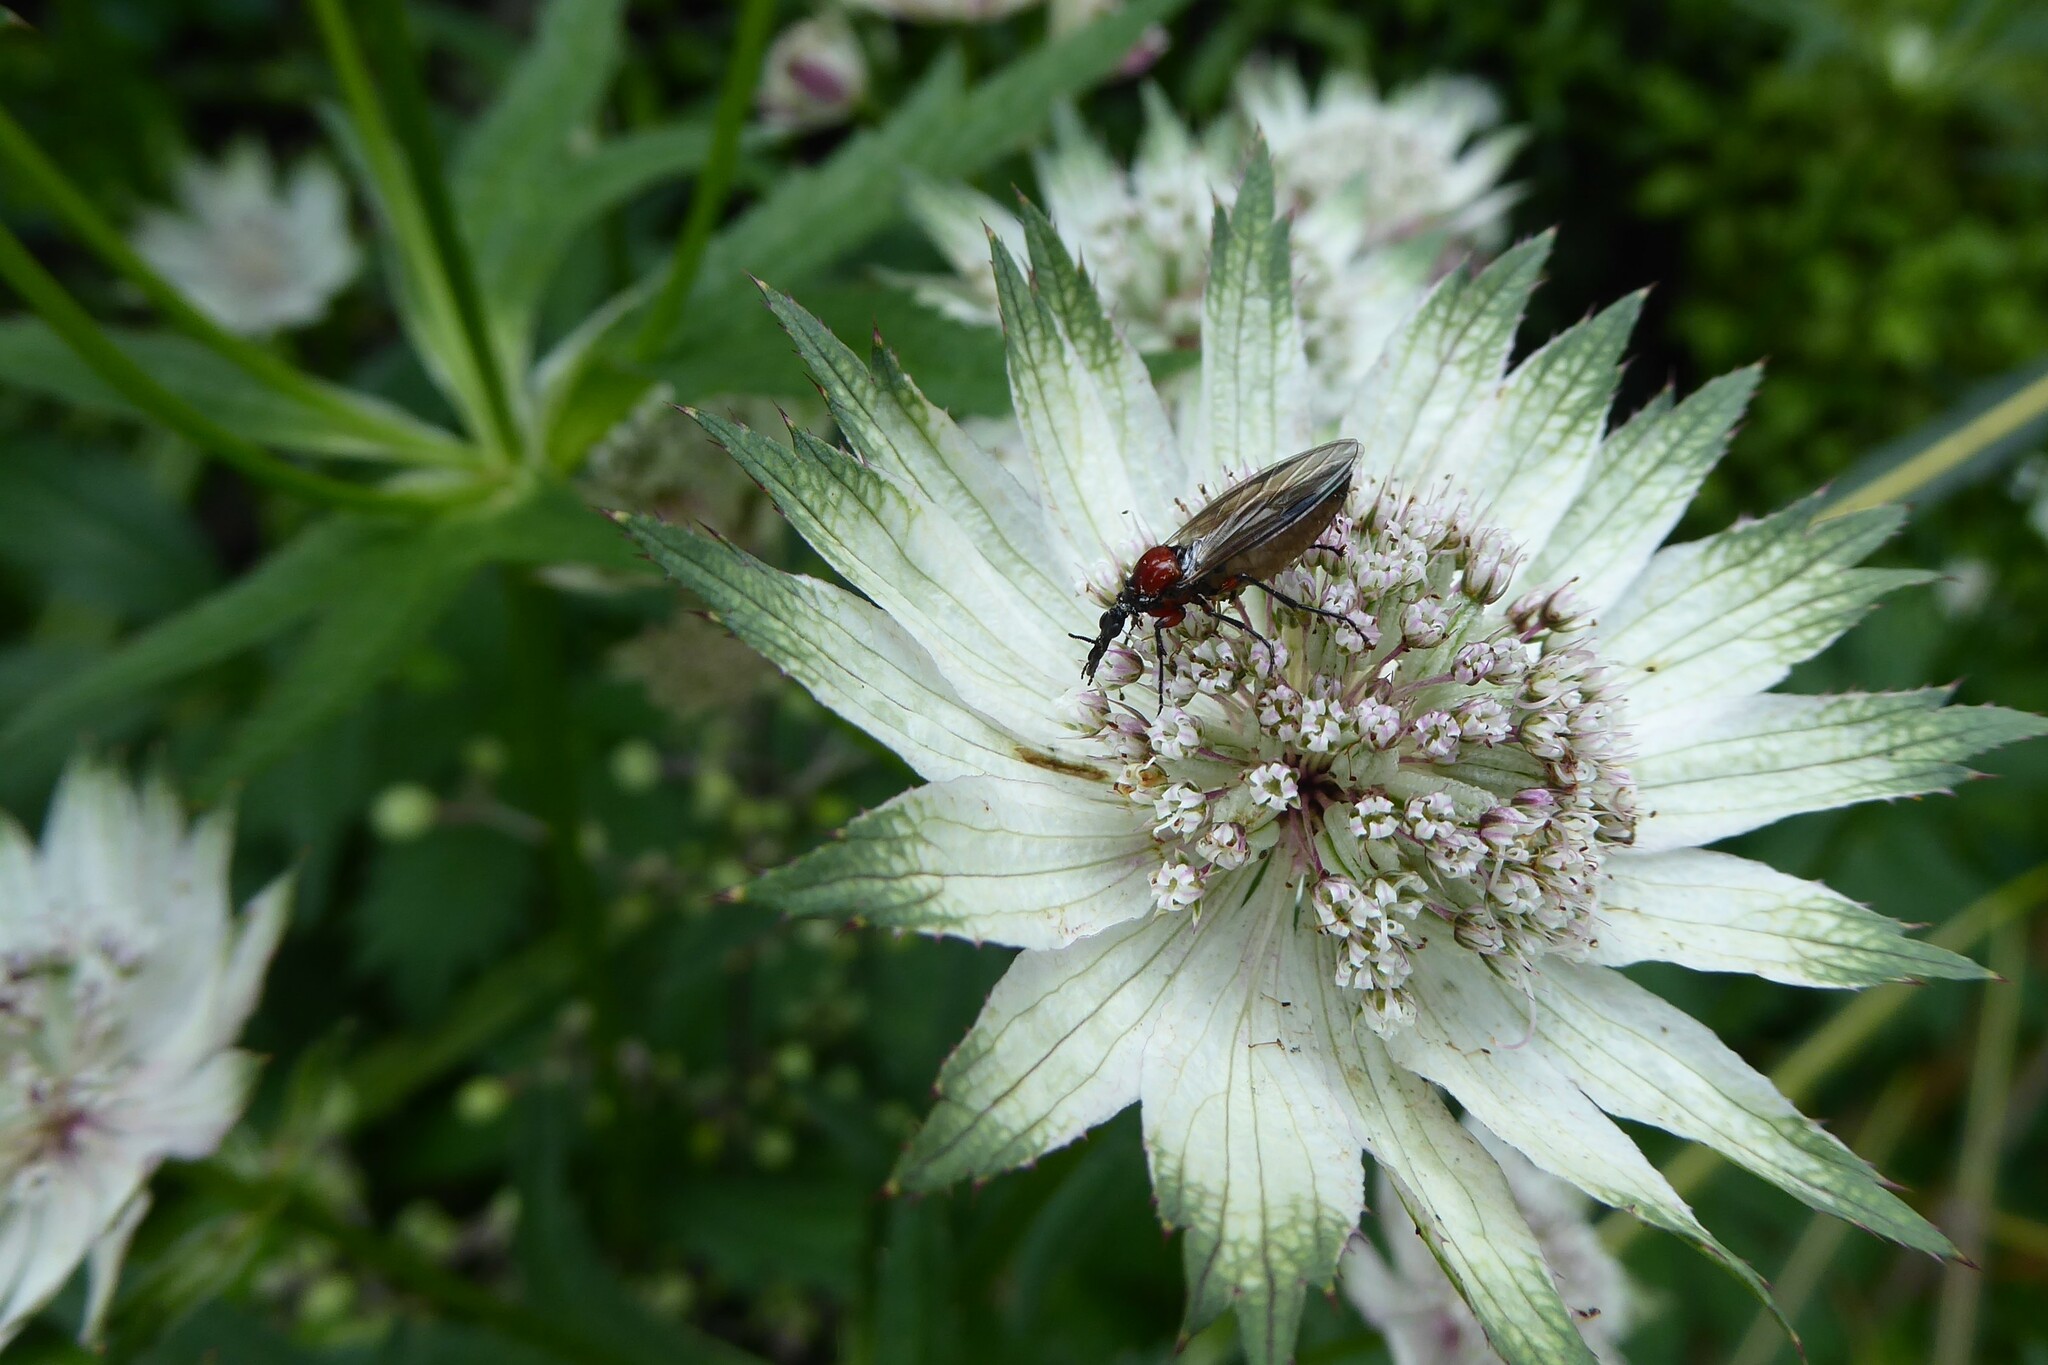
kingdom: Animalia
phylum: Arthropoda
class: Insecta
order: Diptera
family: Bibionidae
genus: Dilophus
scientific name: Dilophus nigrostigma
